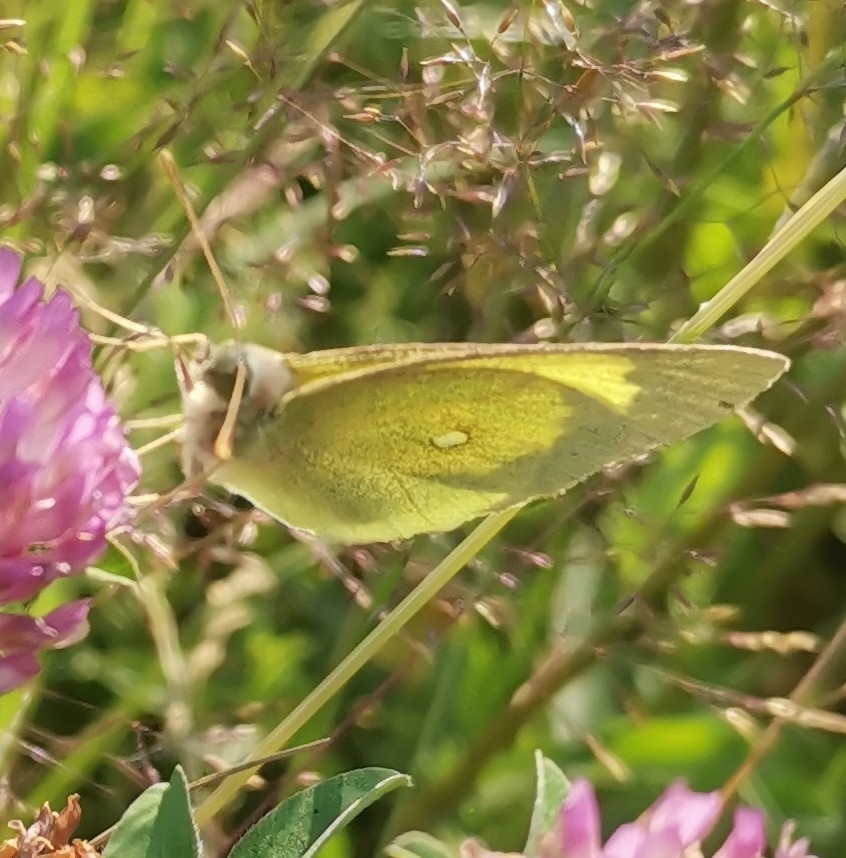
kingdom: Animalia
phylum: Arthropoda
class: Insecta
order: Lepidoptera
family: Pieridae
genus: Colias
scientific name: Colias palaeno
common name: Moorland clouded yellow
